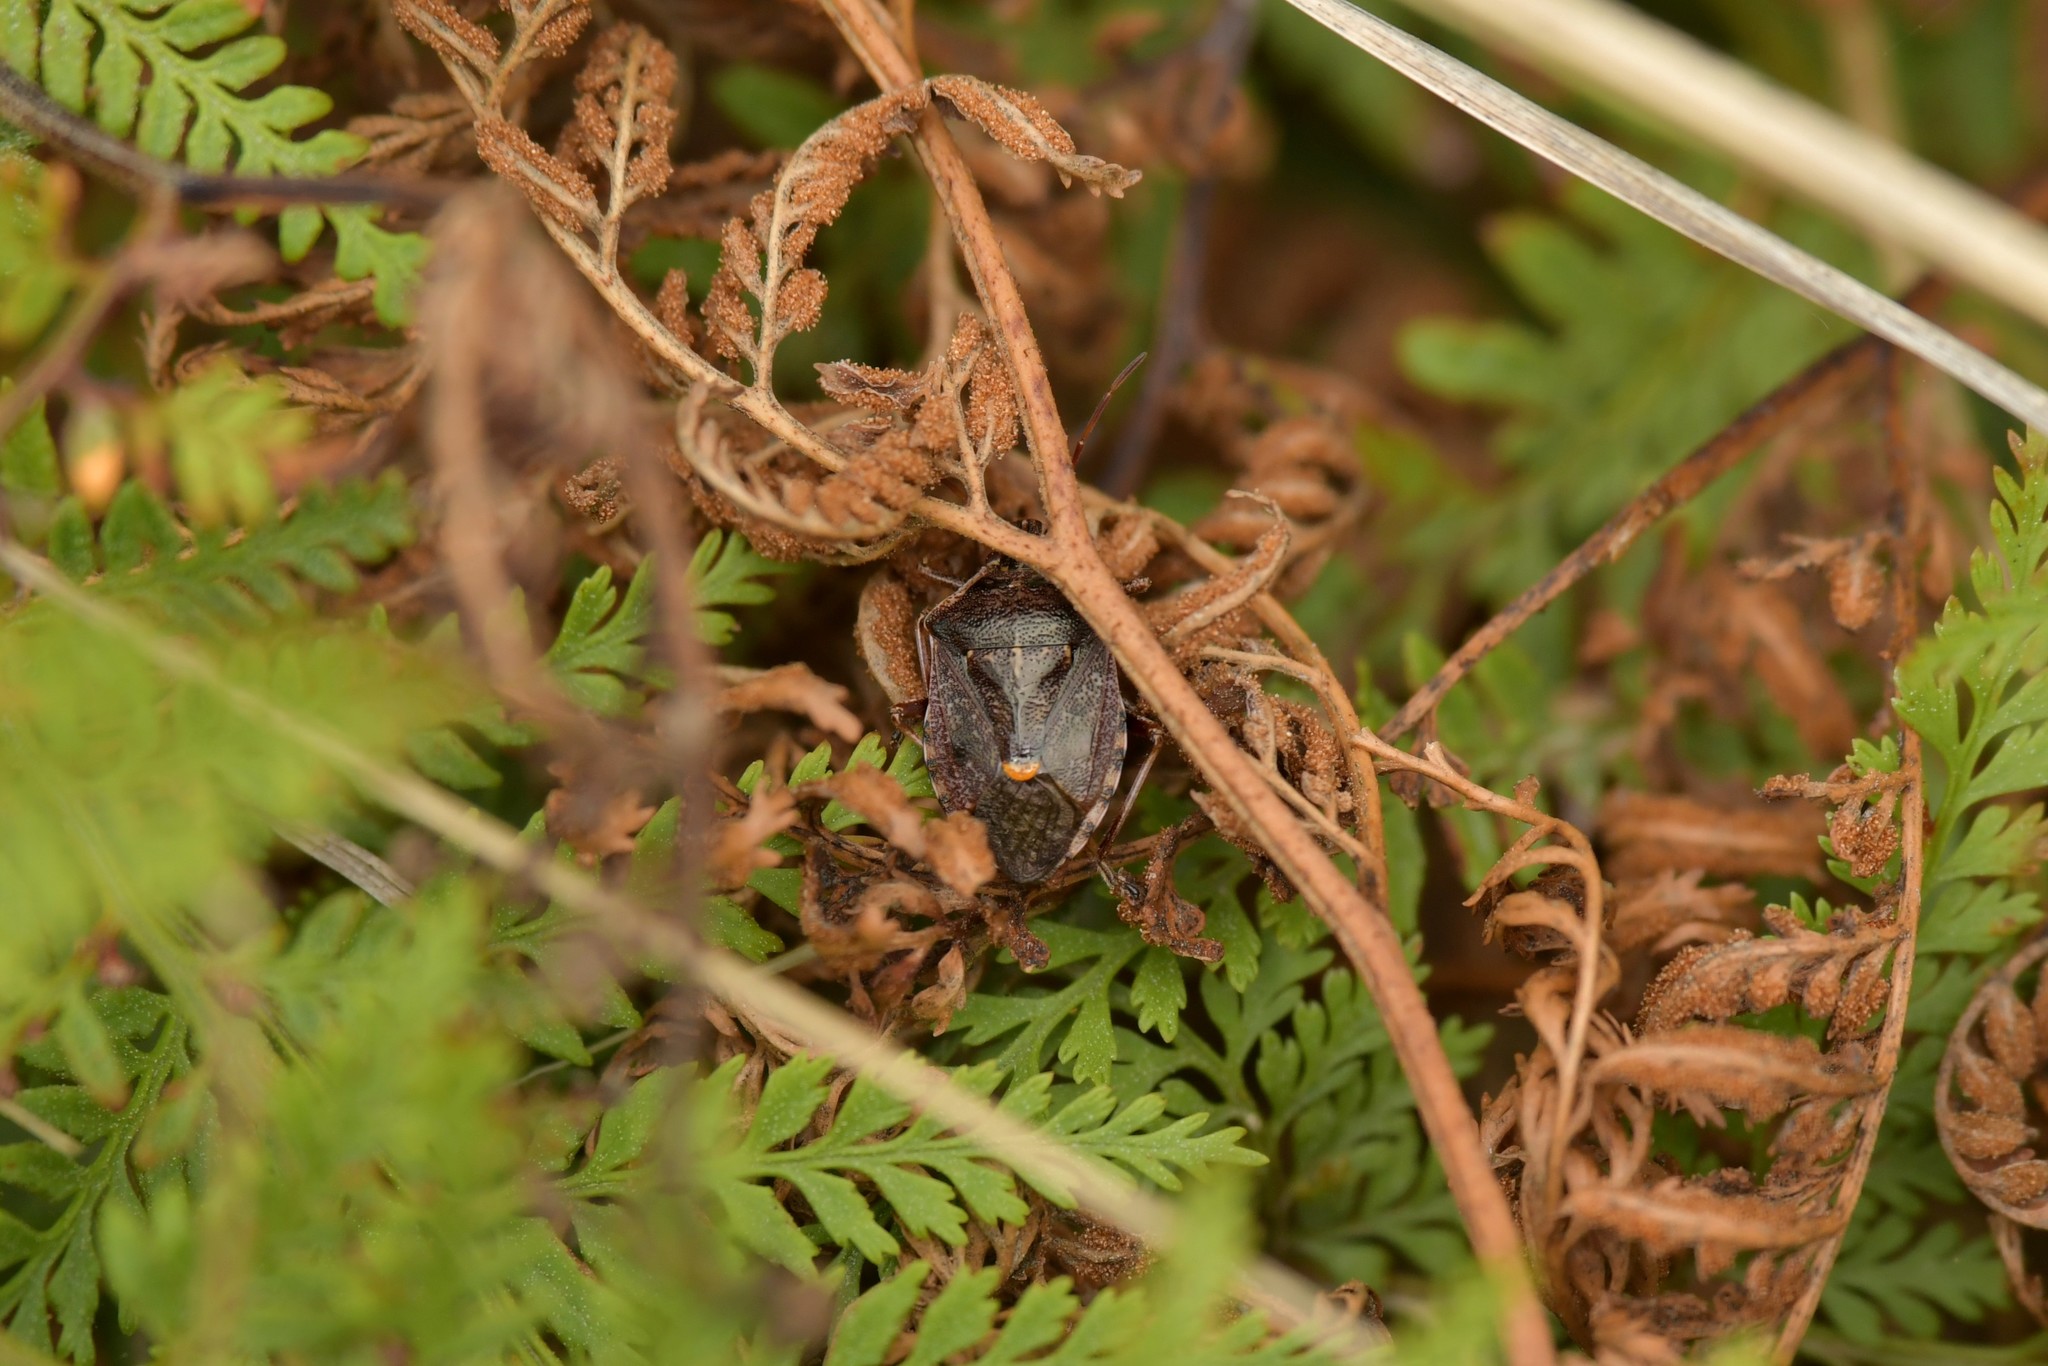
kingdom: Animalia
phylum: Arthropoda
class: Insecta
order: Hemiptera
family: Pentatomidae
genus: Cermatulus
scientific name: Cermatulus nasalis
